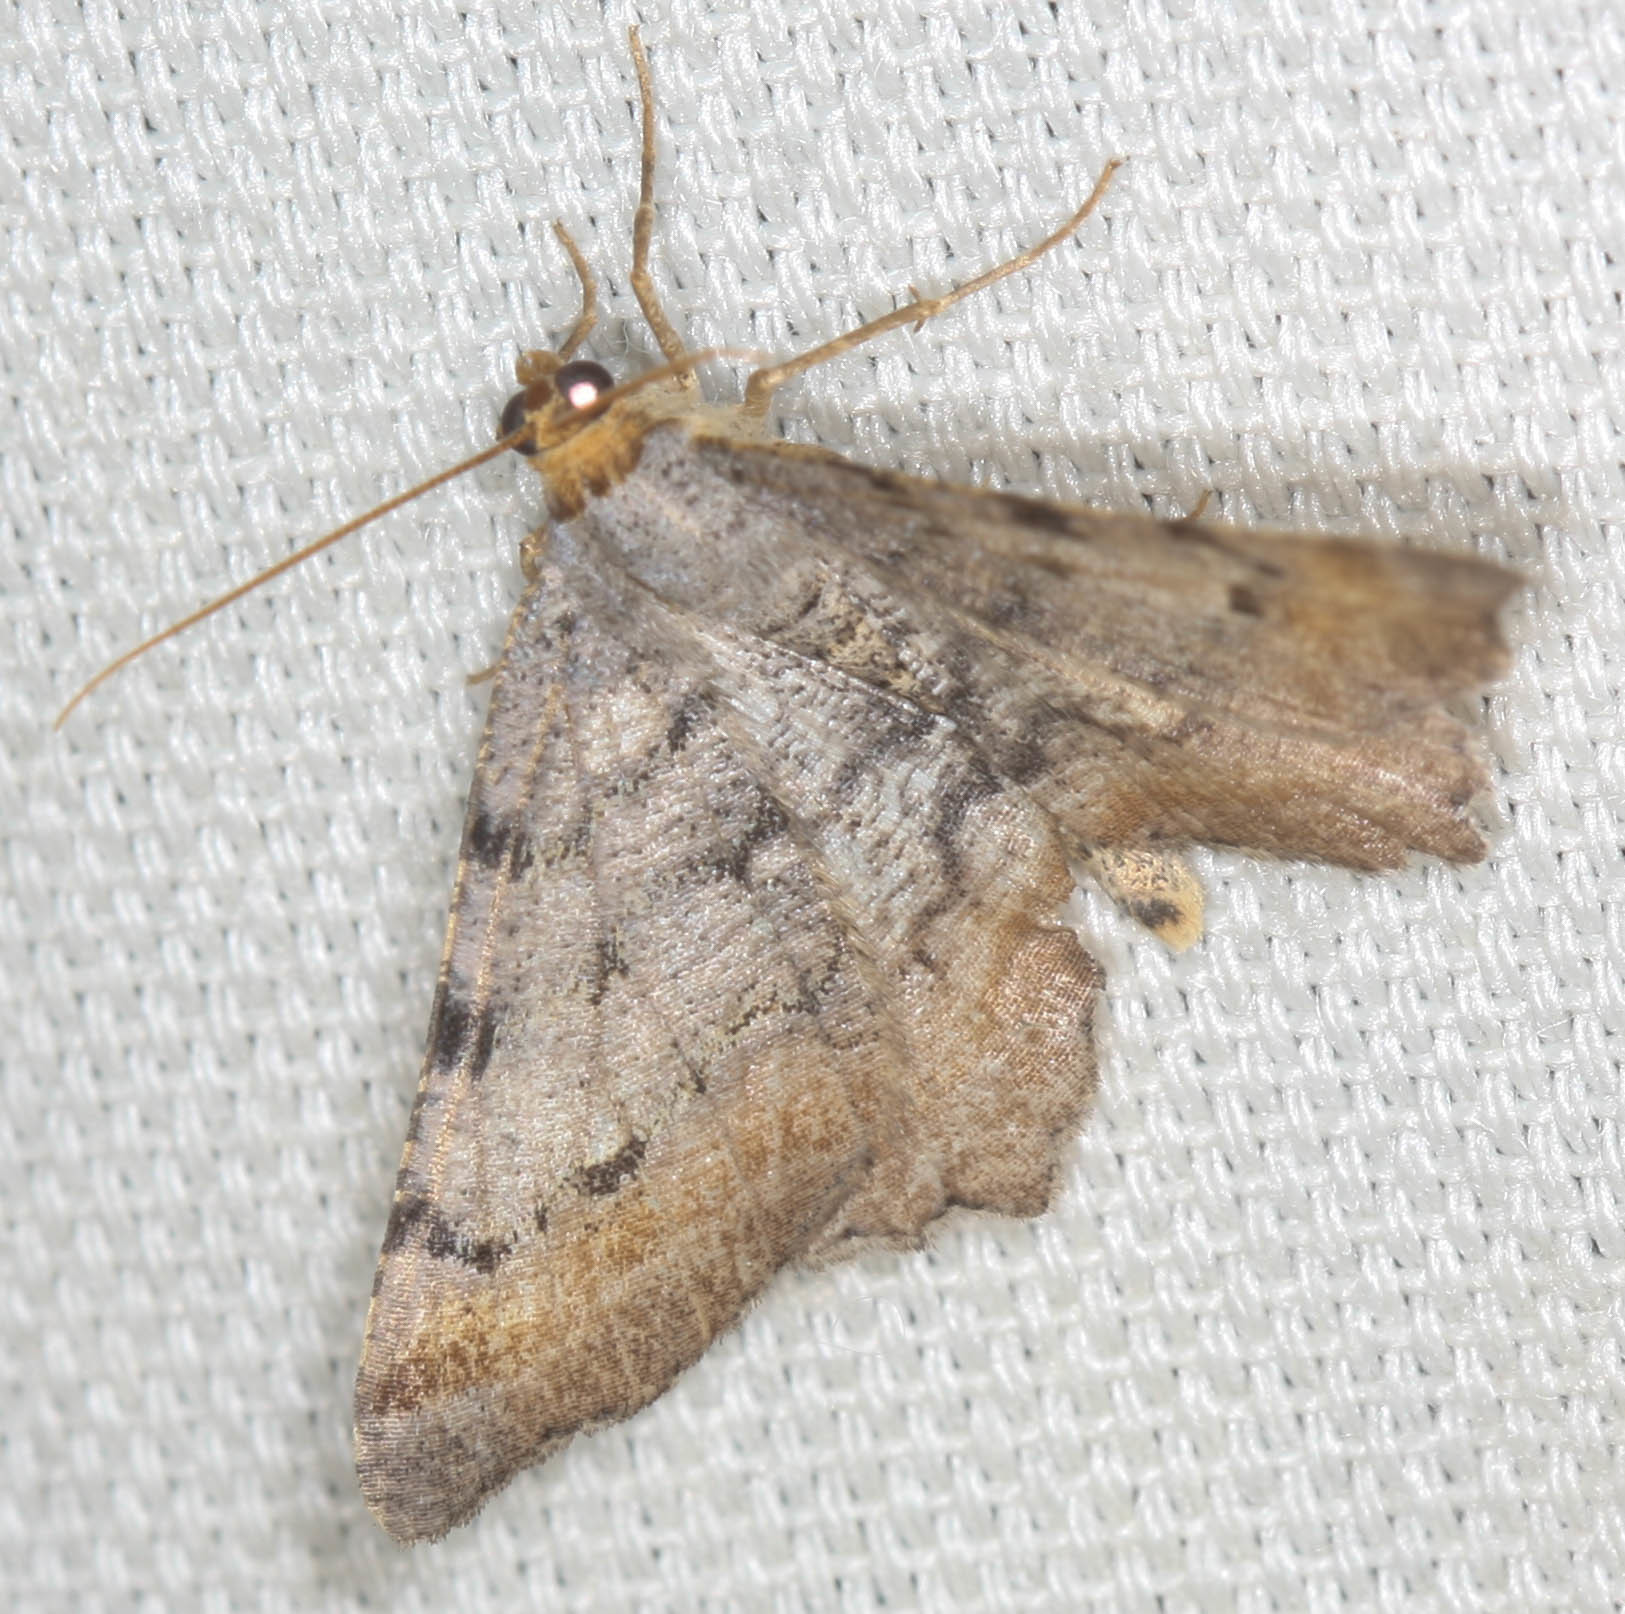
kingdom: Animalia
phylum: Arthropoda
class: Insecta
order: Lepidoptera
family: Geometridae
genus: Macaria
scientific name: Macaria adonis
